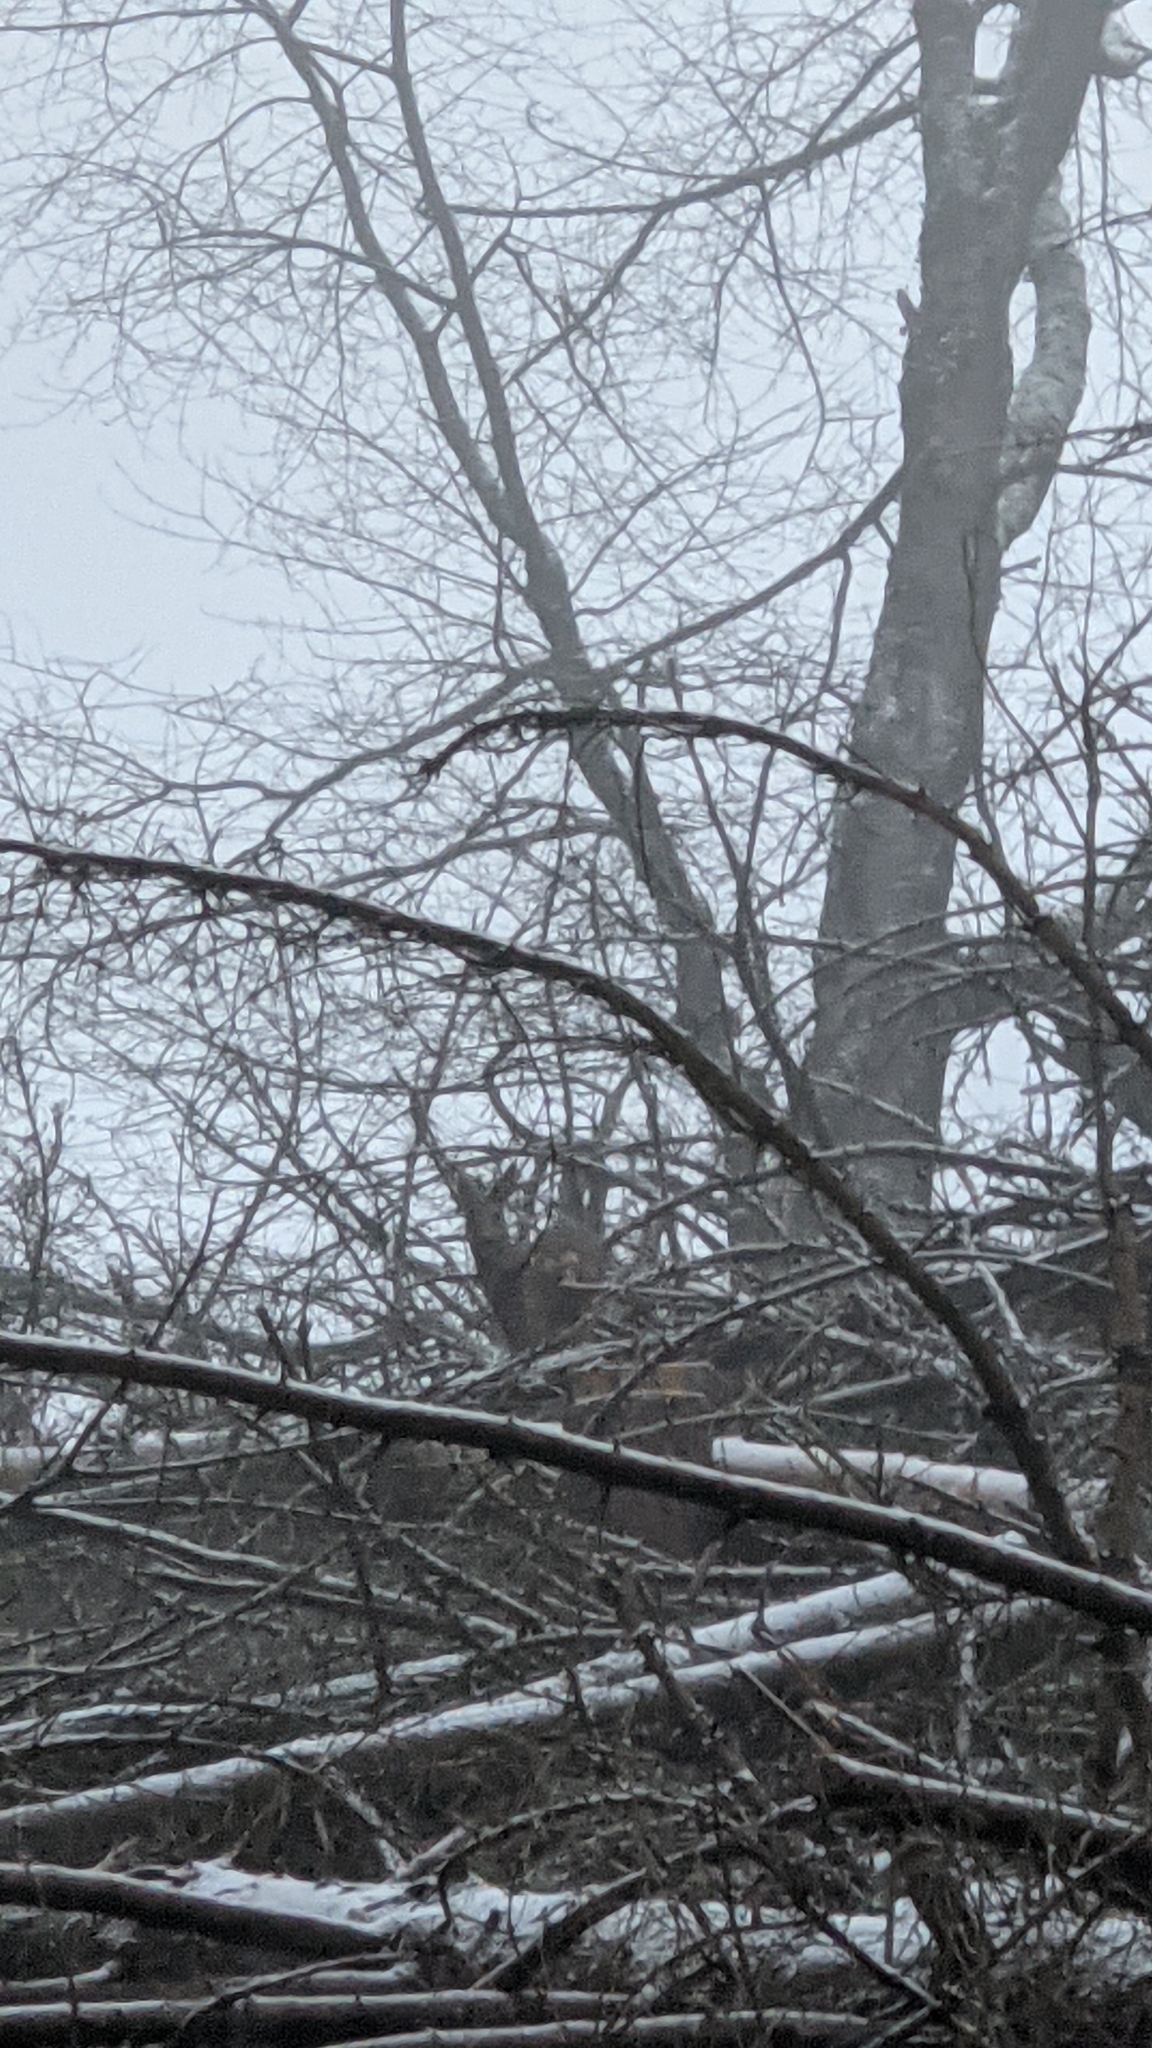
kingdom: Animalia
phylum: Chordata
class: Mammalia
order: Artiodactyla
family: Cervidae
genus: Capreolus
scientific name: Capreolus capreolus
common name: Western roe deer
